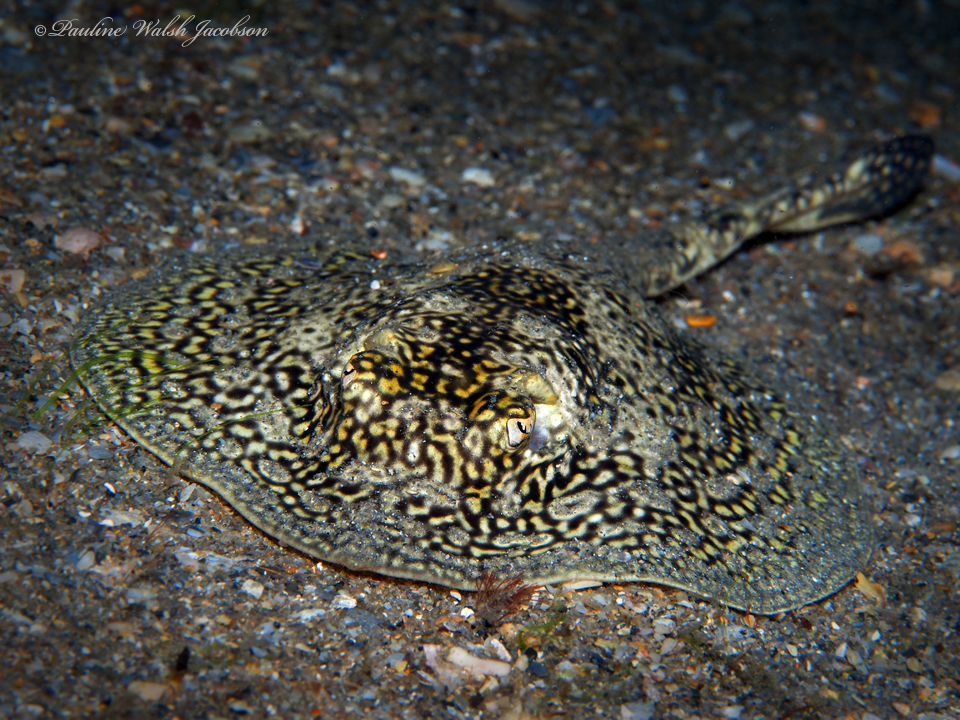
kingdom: Animalia
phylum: Chordata
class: Elasmobranchii
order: Myliobatiformes
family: Urotrygonidae
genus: Urobatis
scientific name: Urobatis jamaicensis
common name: Yellow stingray
